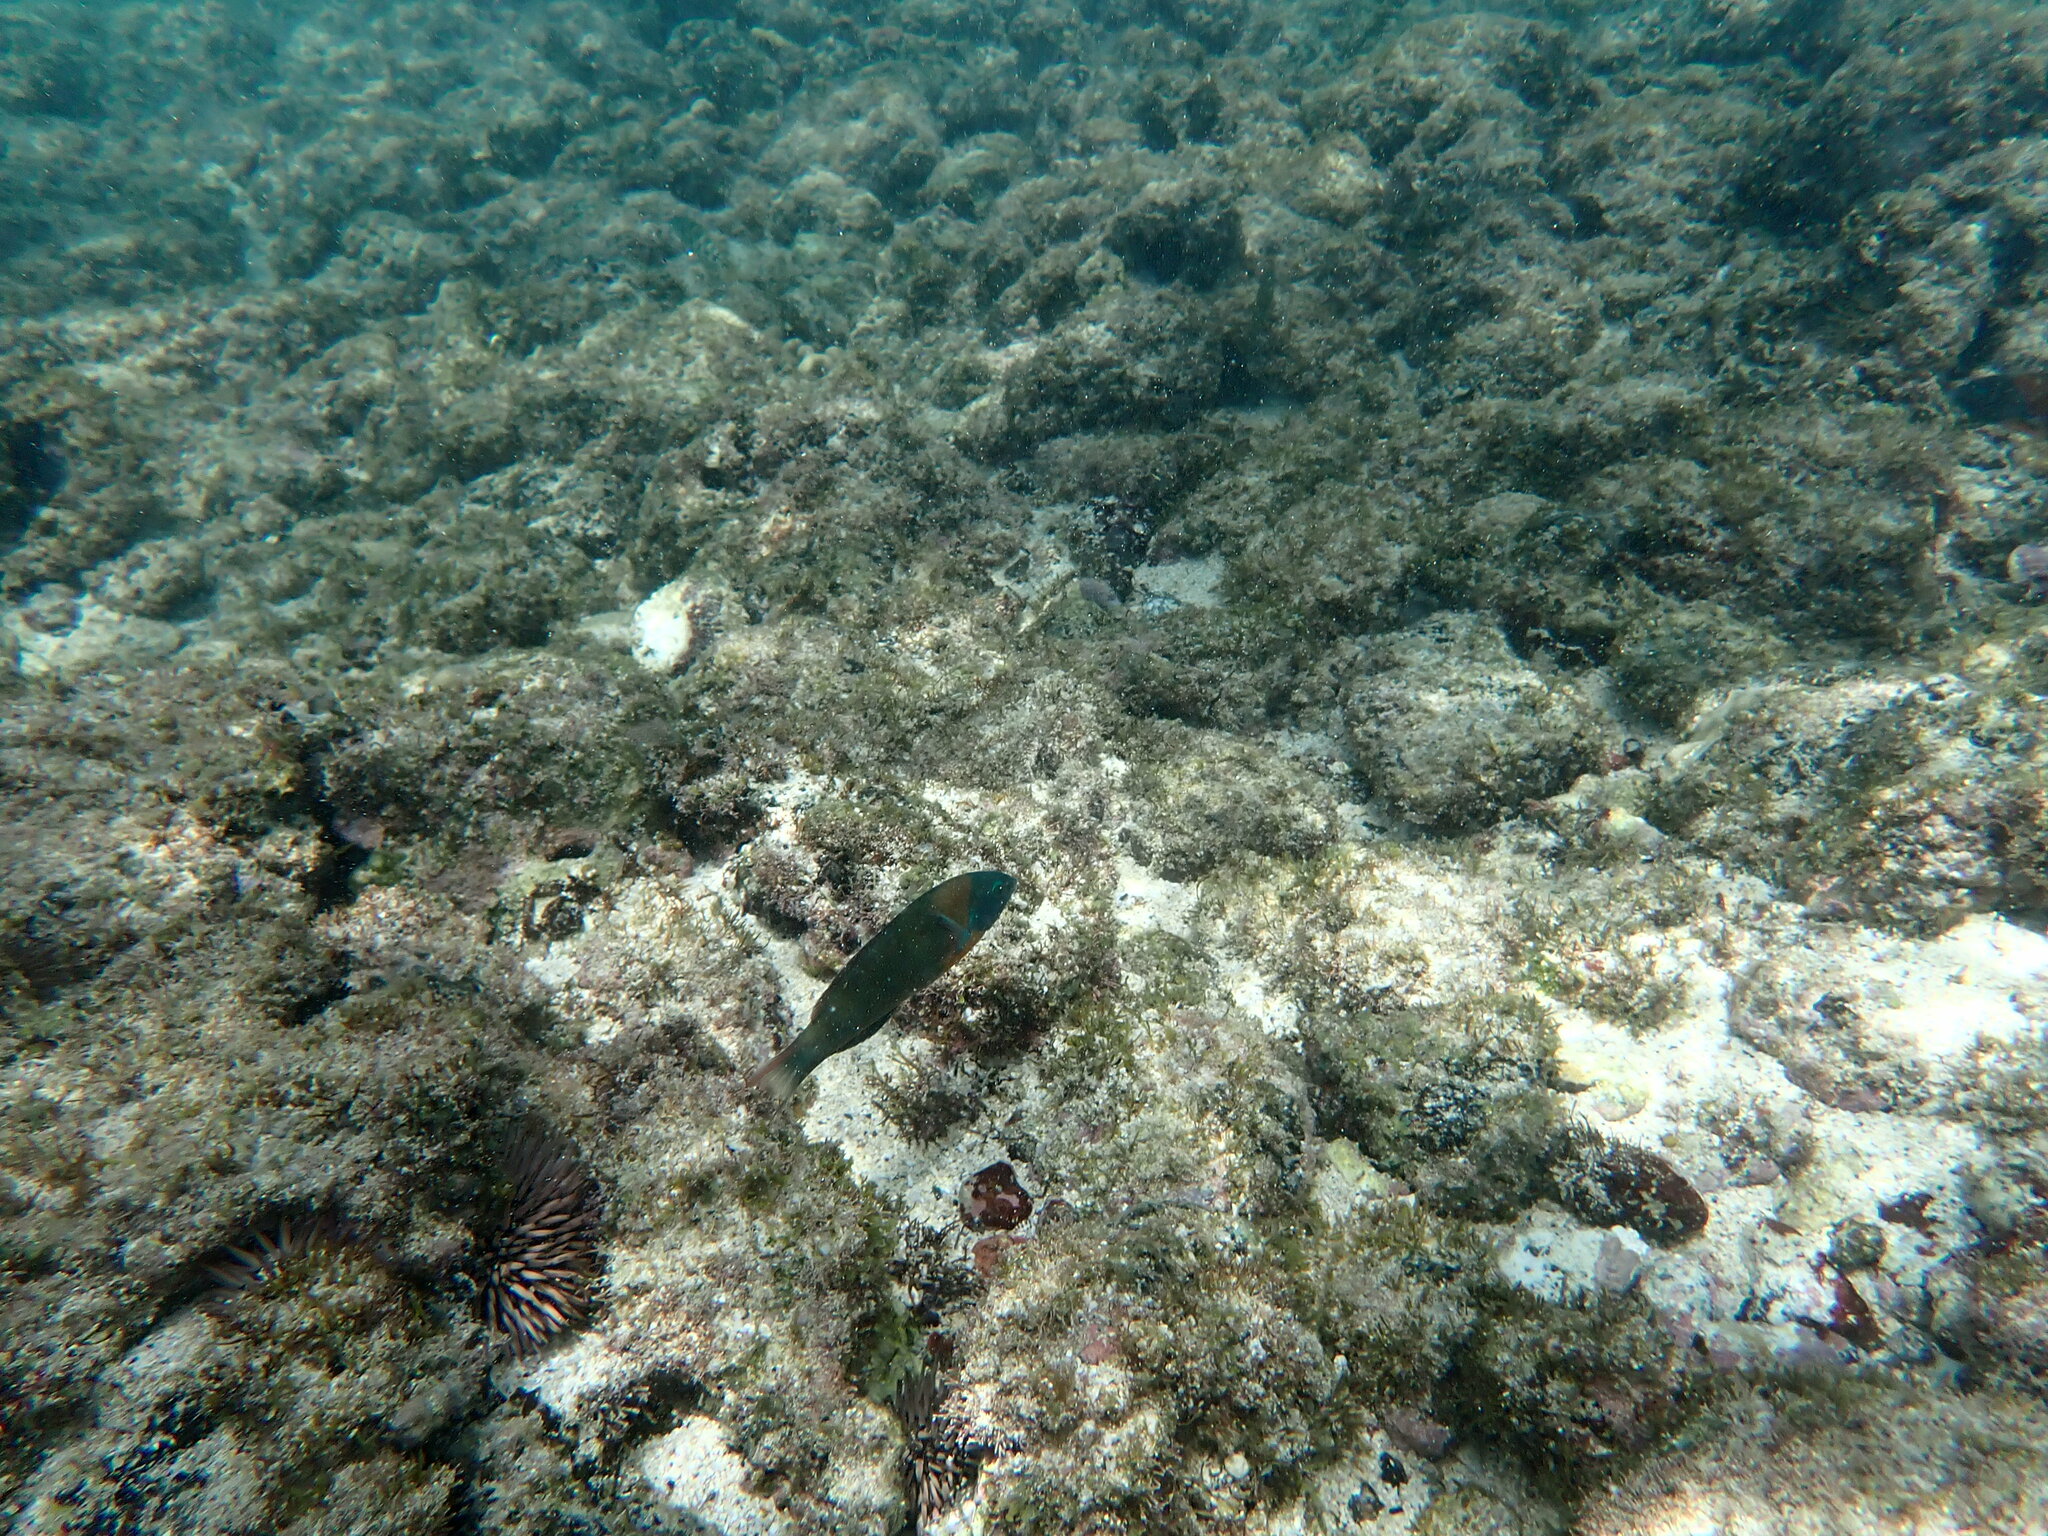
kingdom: Animalia
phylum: Chordata
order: Perciformes
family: Labridae
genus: Thalassoma
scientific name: Thalassoma duperrey
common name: Saddle wrasse
